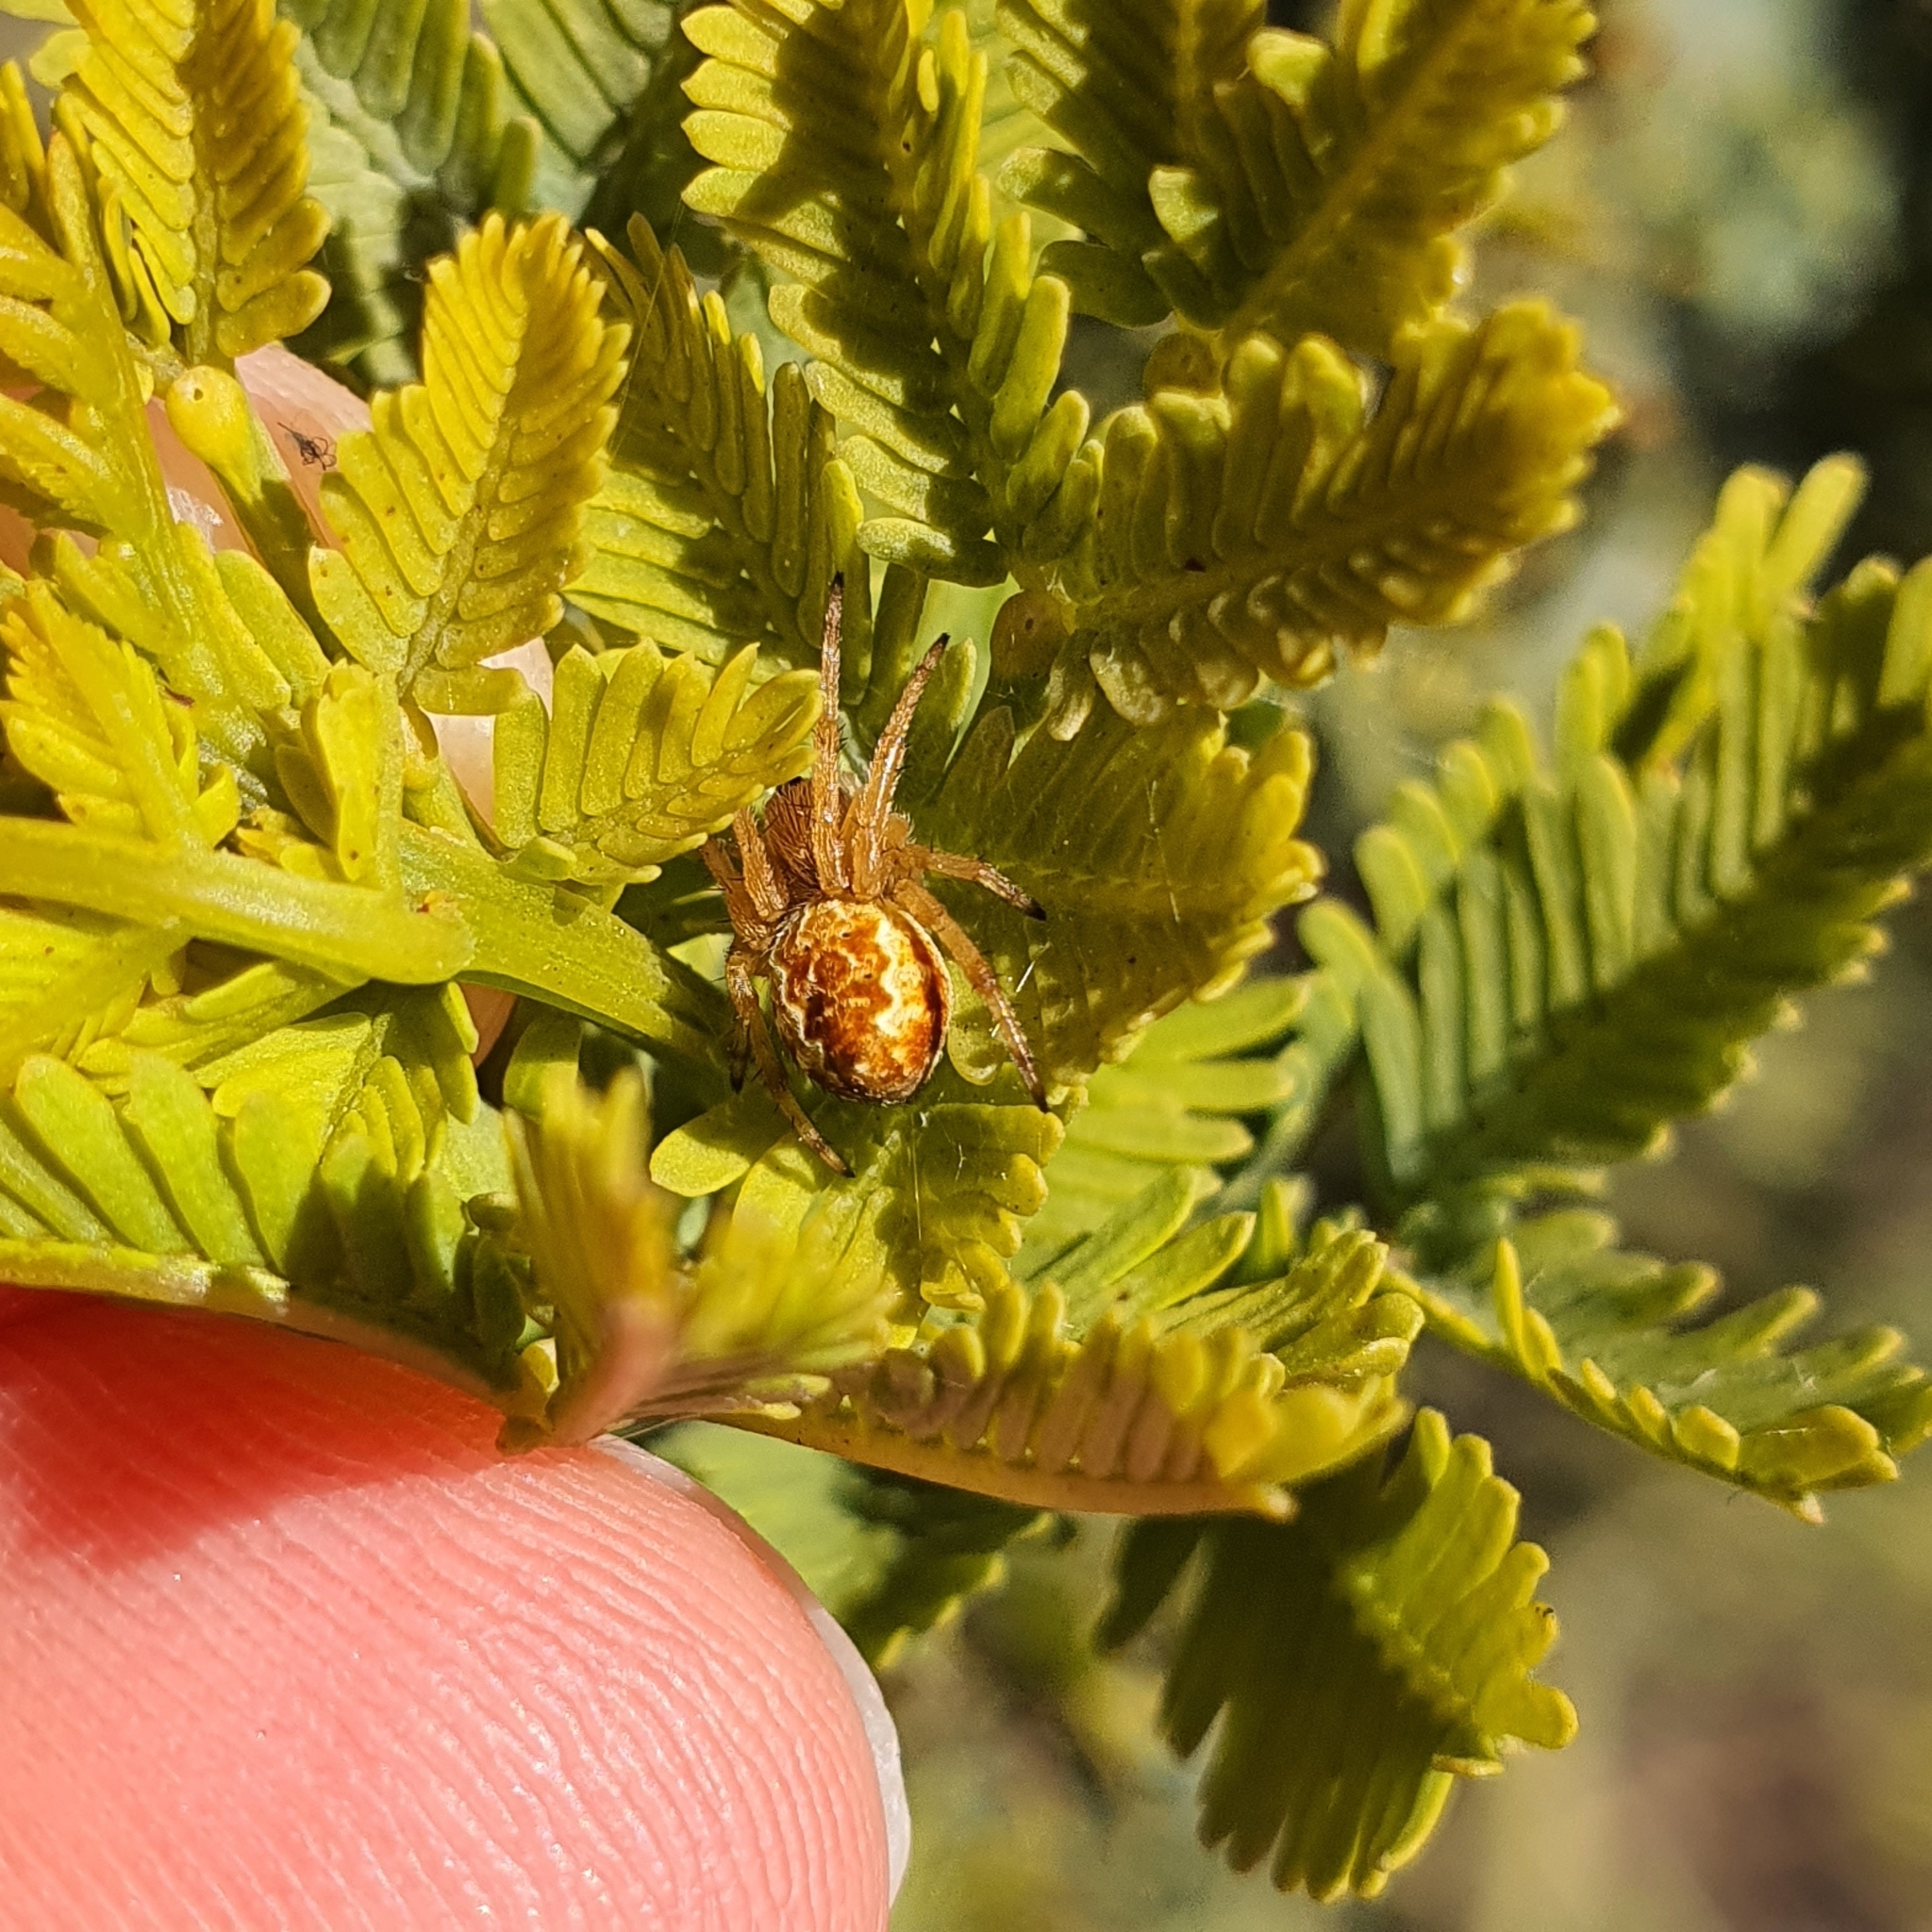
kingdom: Animalia
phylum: Arthropoda
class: Arachnida
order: Araneae
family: Araneidae
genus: Salsa
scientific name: Salsa fuliginata
